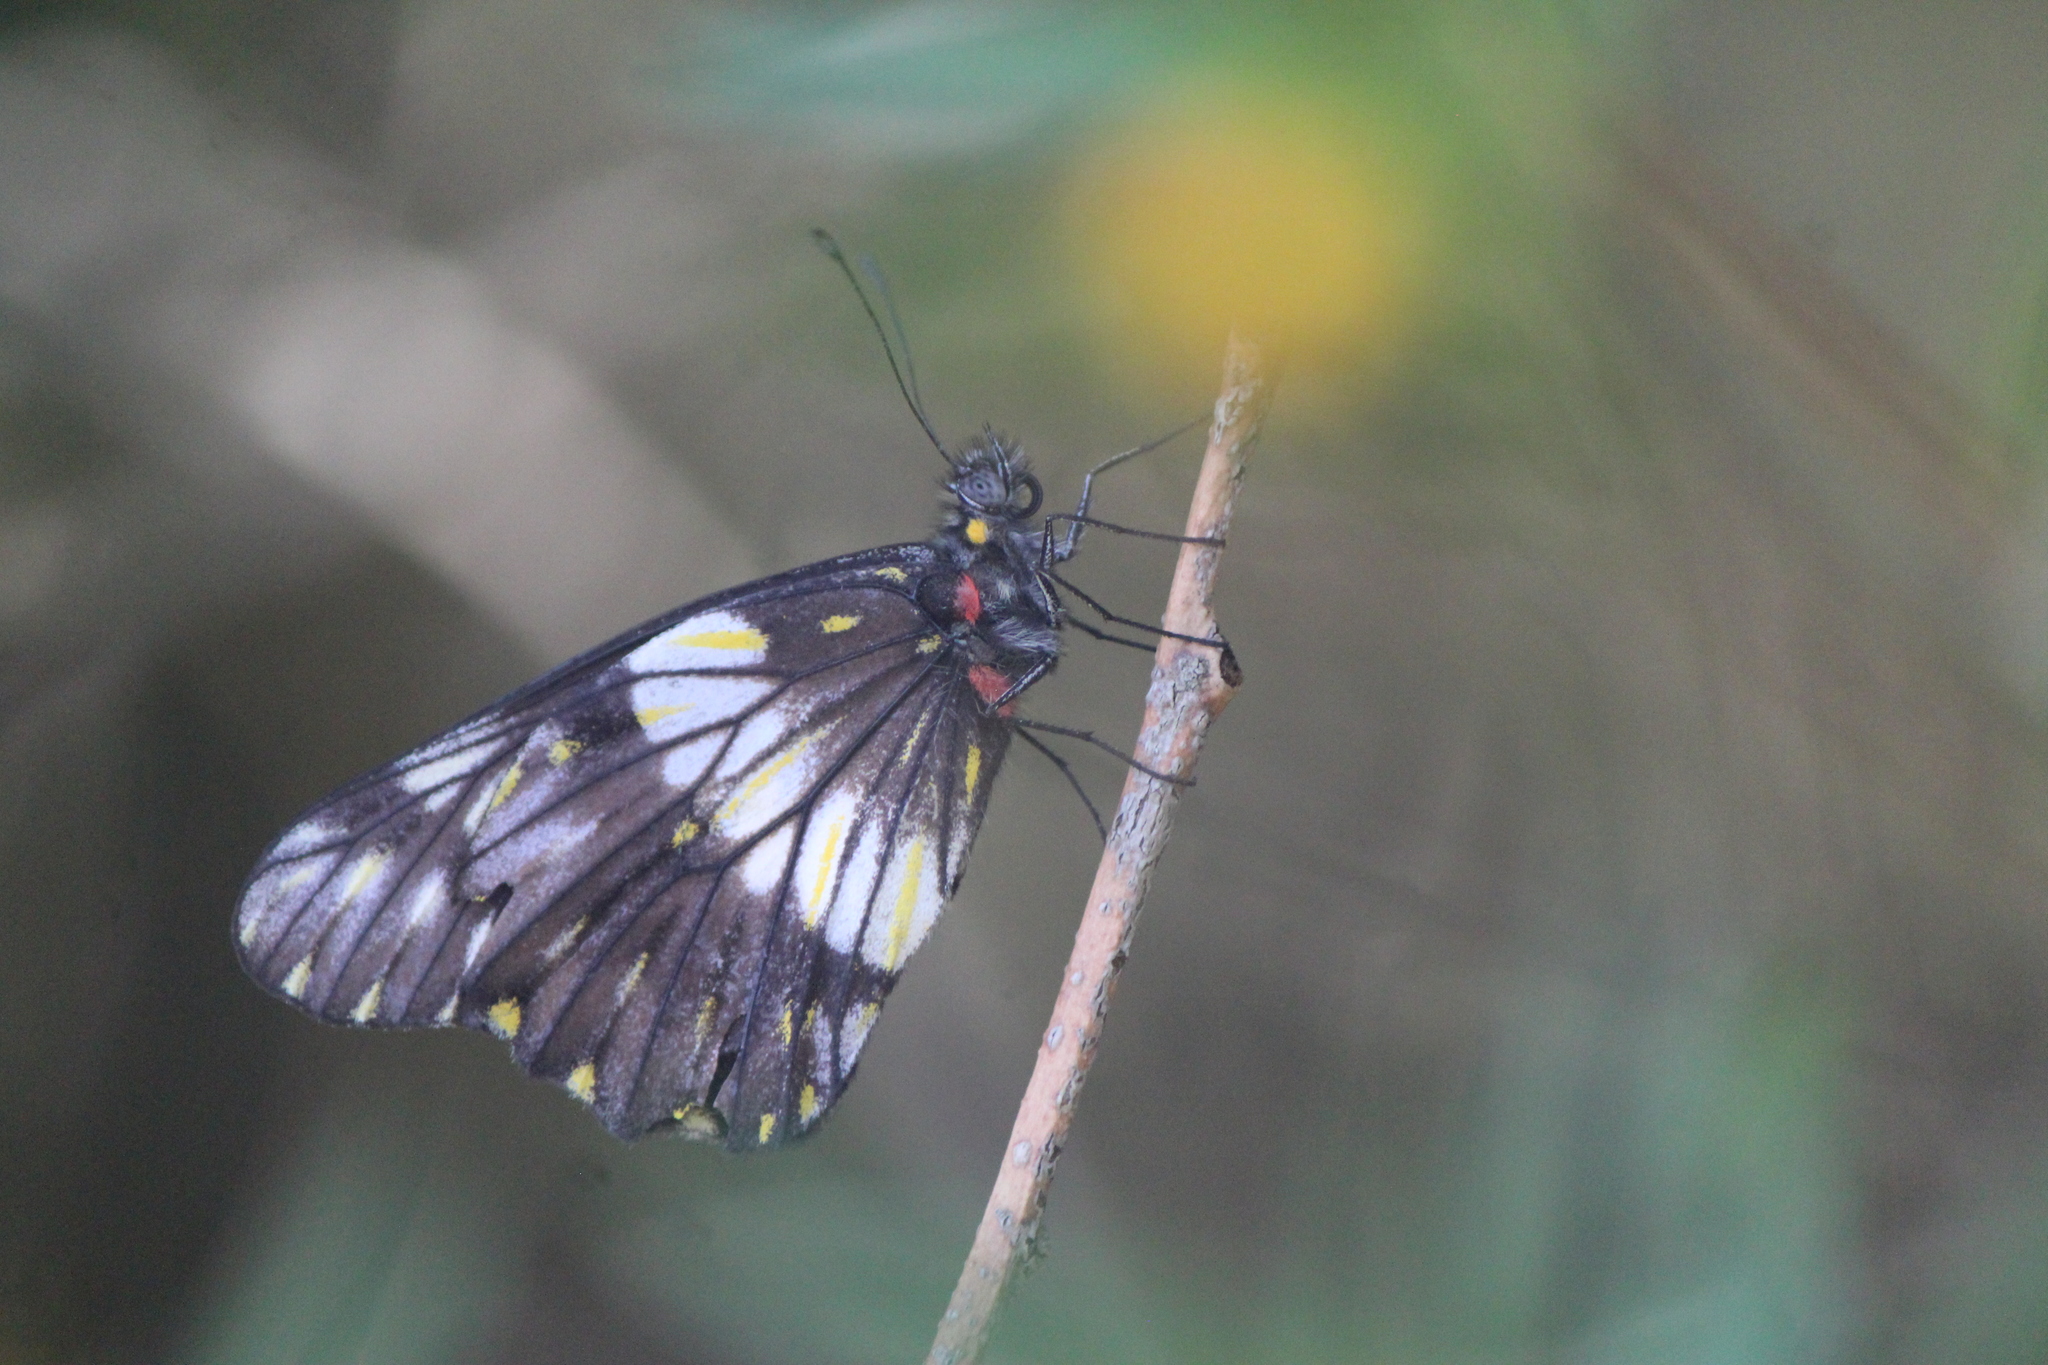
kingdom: Animalia
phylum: Arthropoda
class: Insecta
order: Lepidoptera
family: Pieridae
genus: Archonias
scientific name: Archonias nimbice
